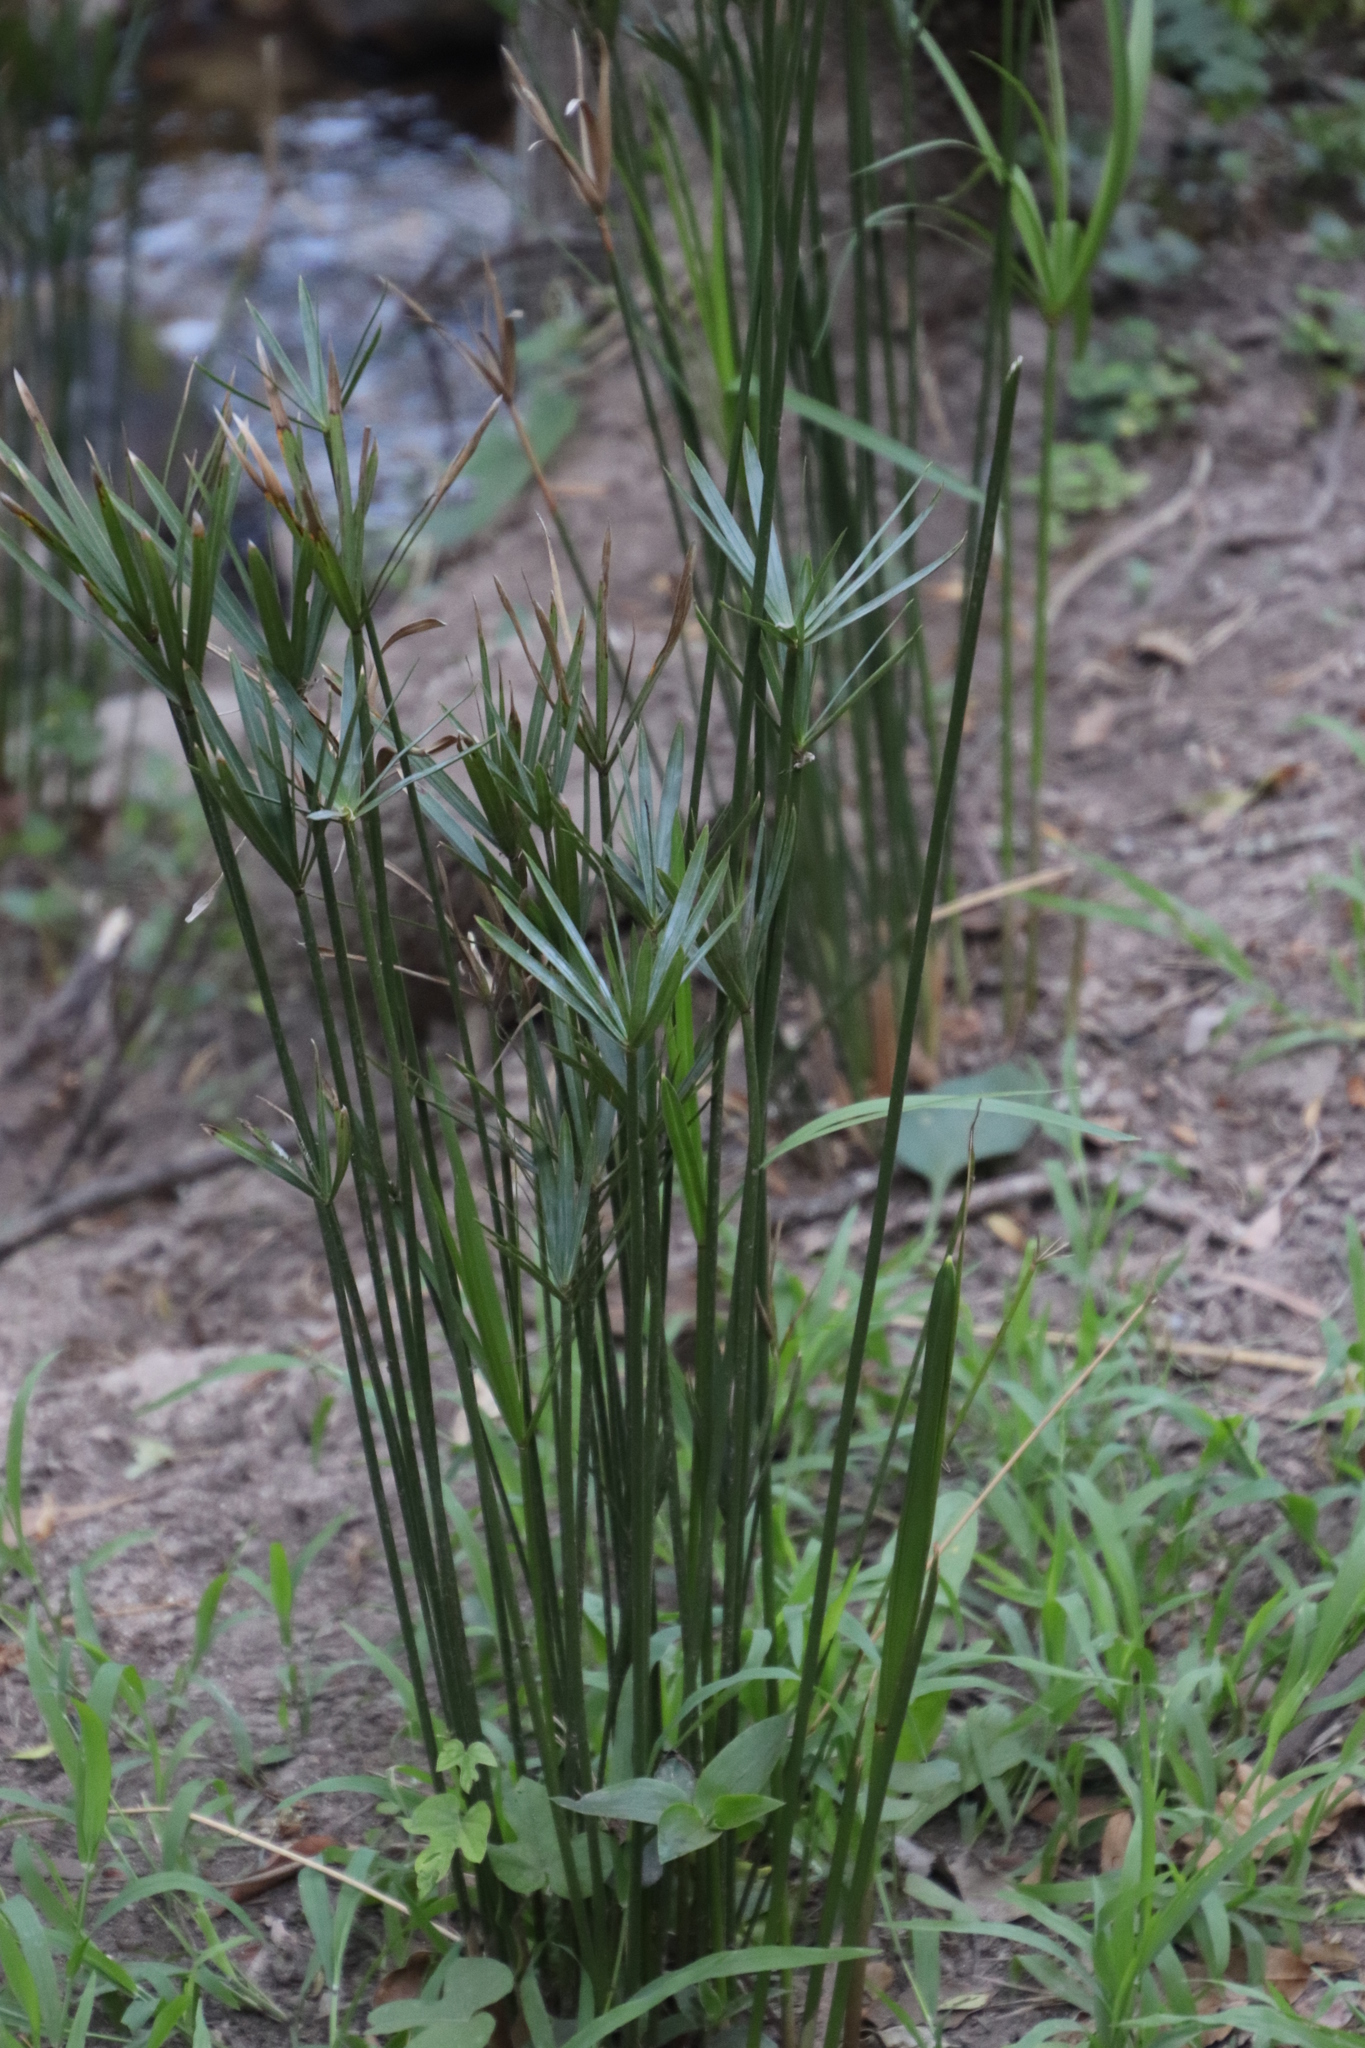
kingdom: Plantae
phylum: Tracheophyta
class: Liliopsida
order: Poales
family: Cyperaceae
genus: Cyperus
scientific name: Cyperus textilis
